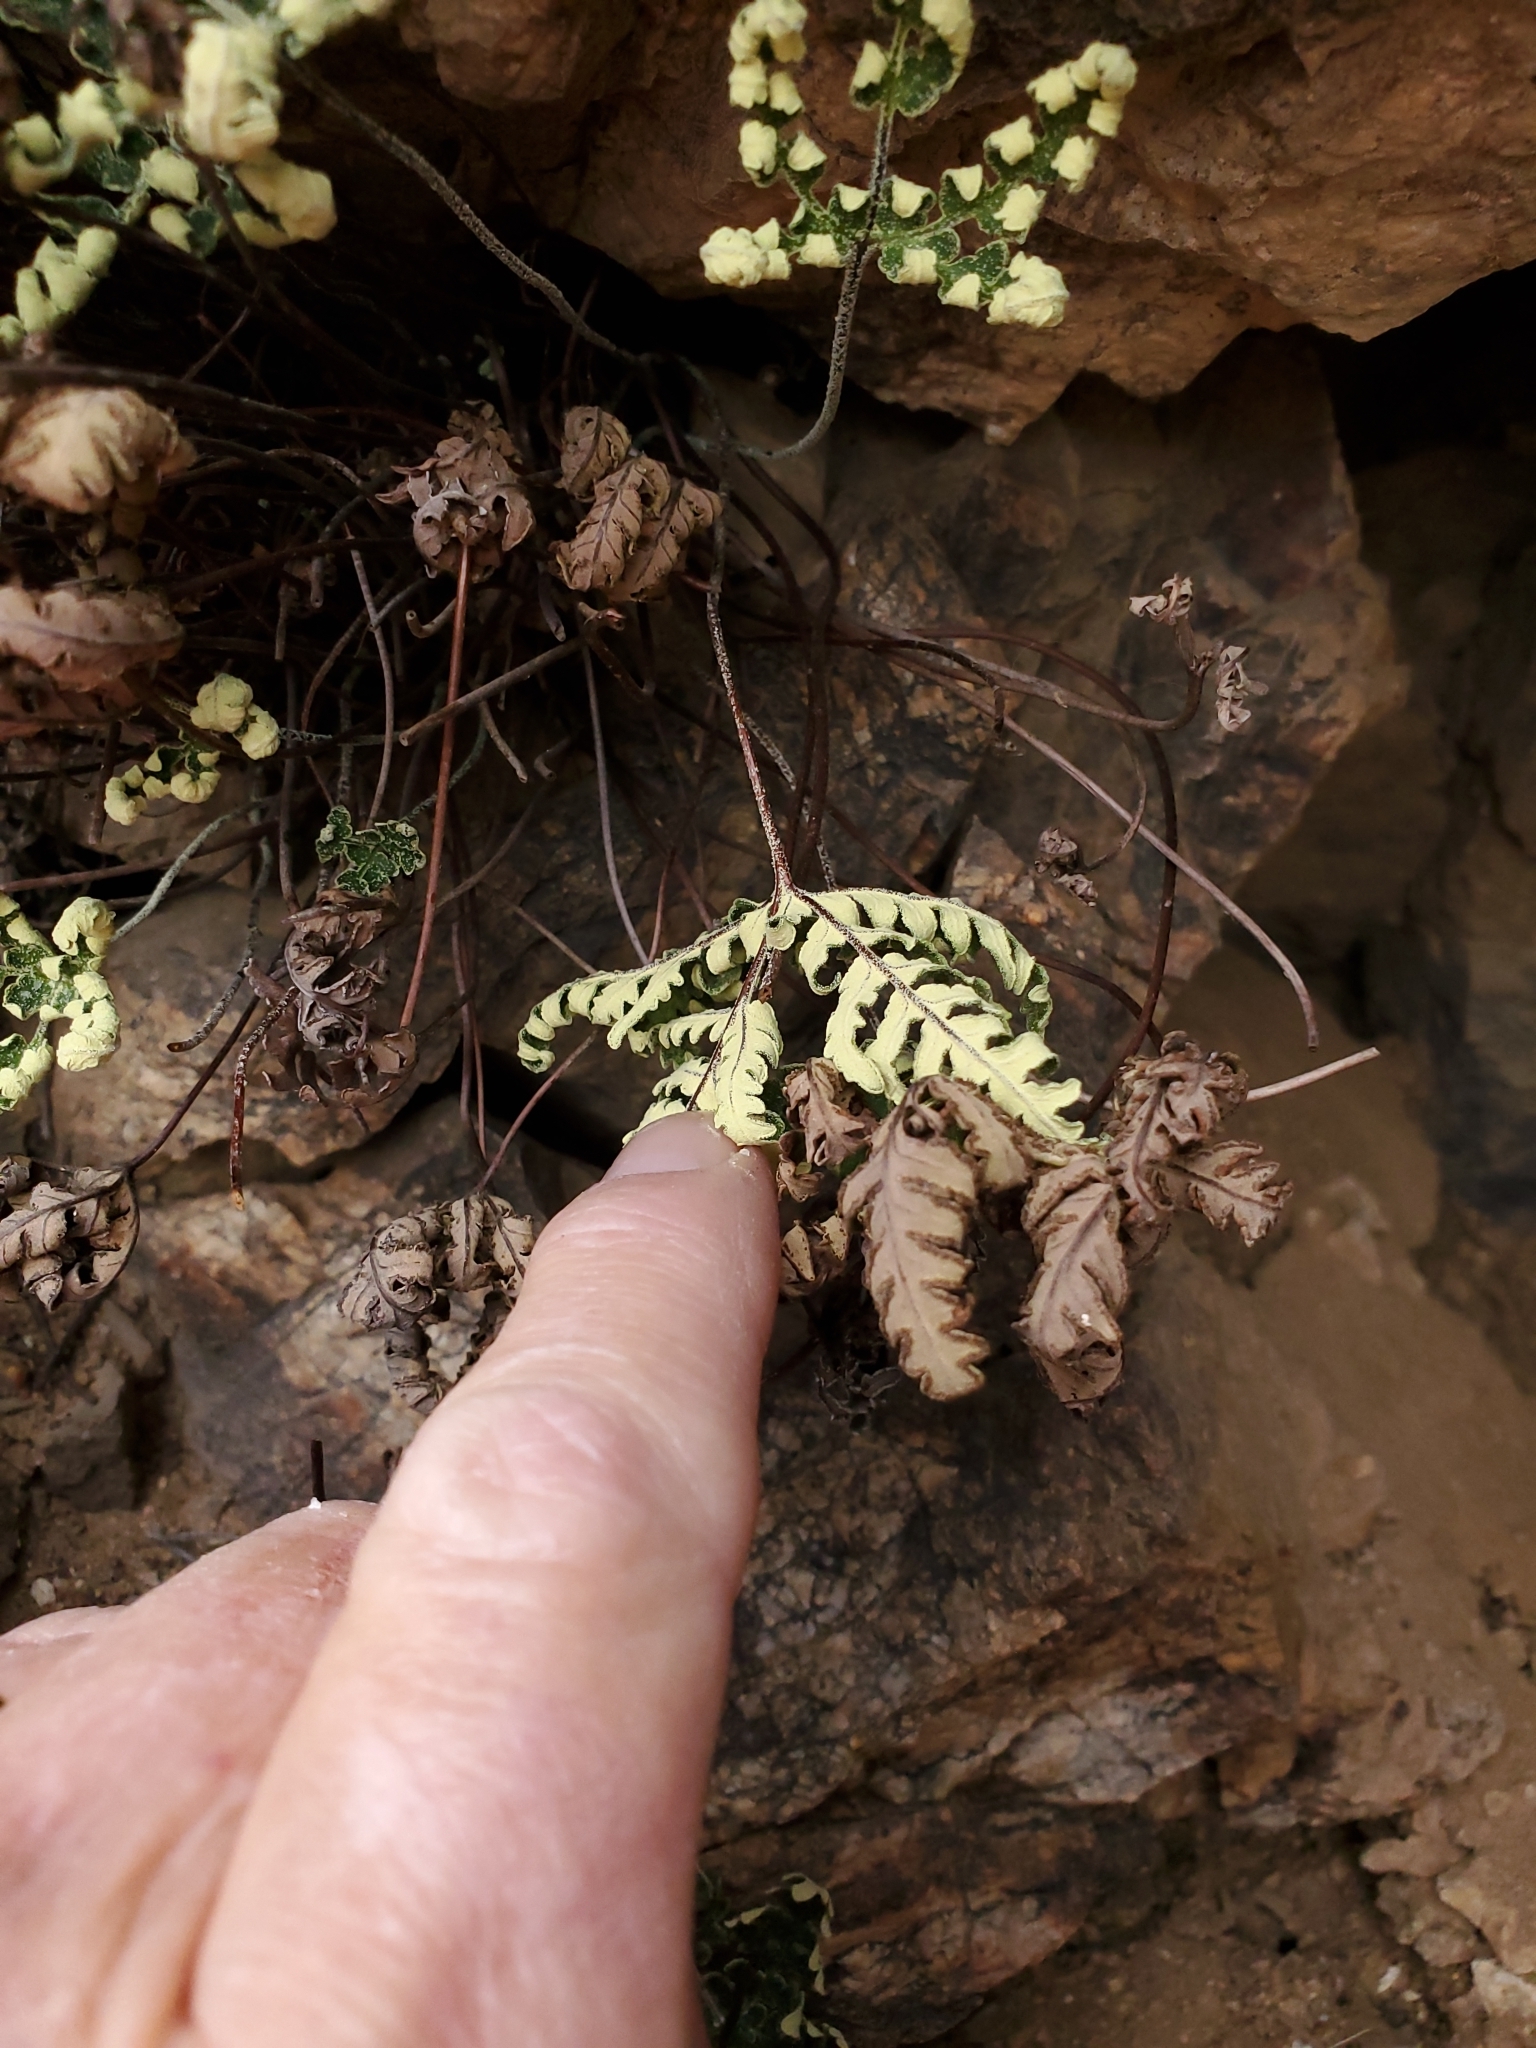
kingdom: Plantae
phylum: Tracheophyta
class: Polypodiopsida
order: Polypodiales
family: Pteridaceae
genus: Notholaena
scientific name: Notholaena standleyi
